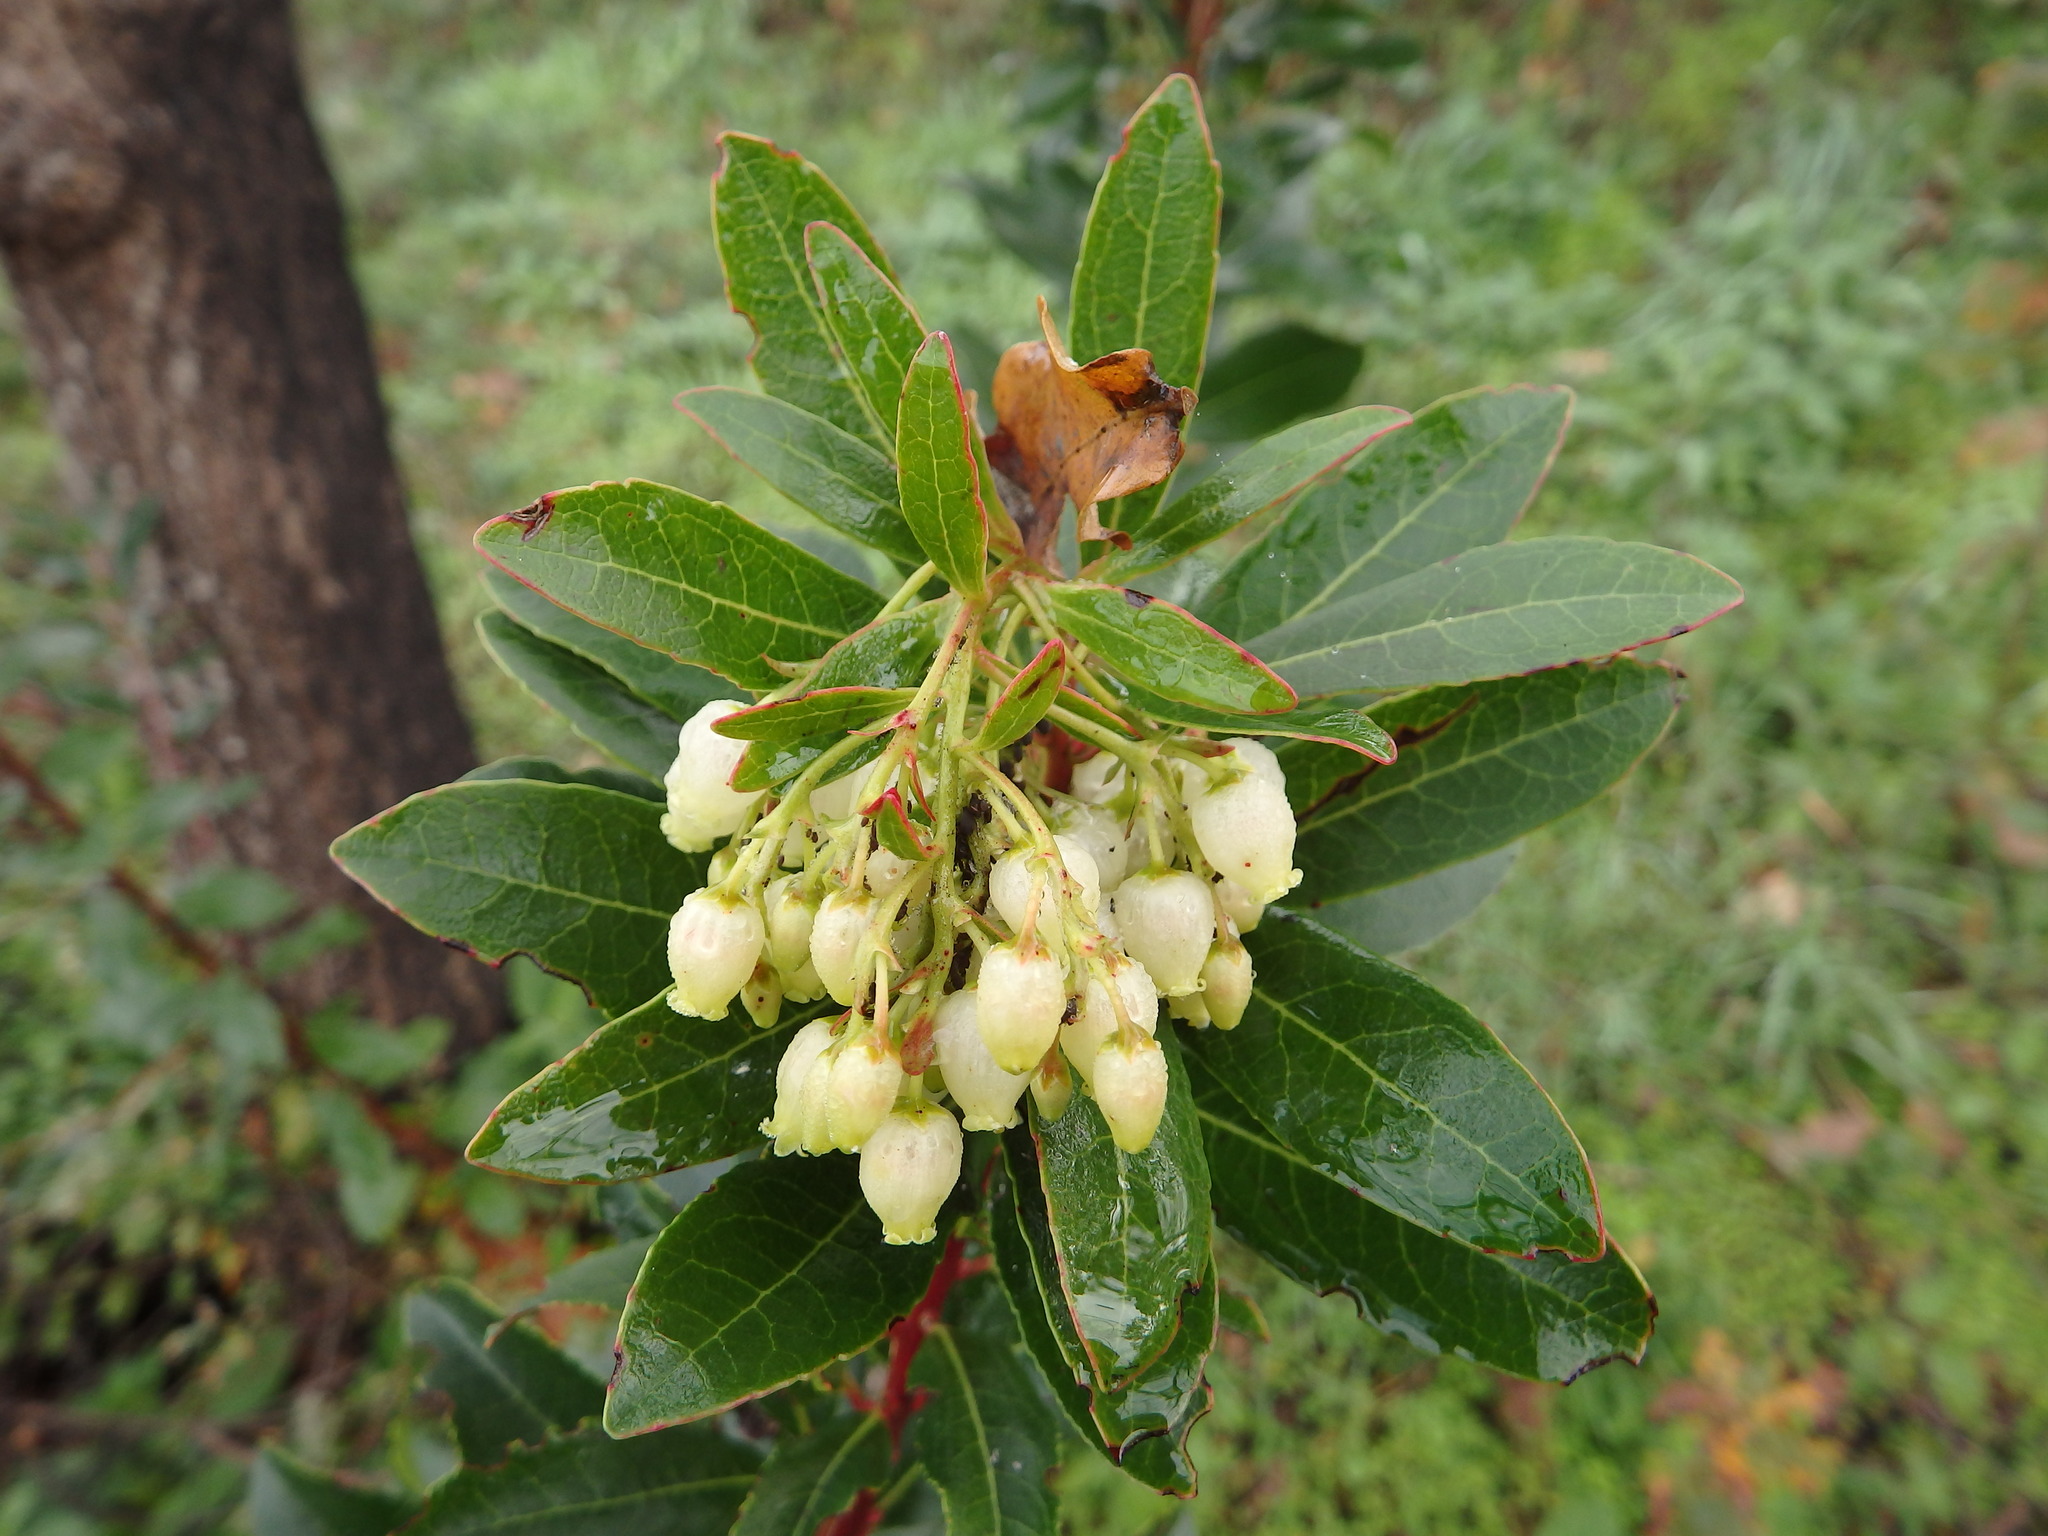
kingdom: Plantae
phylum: Tracheophyta
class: Magnoliopsida
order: Ericales
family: Ericaceae
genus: Arbutus
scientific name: Arbutus unedo
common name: Strawberry-tree
